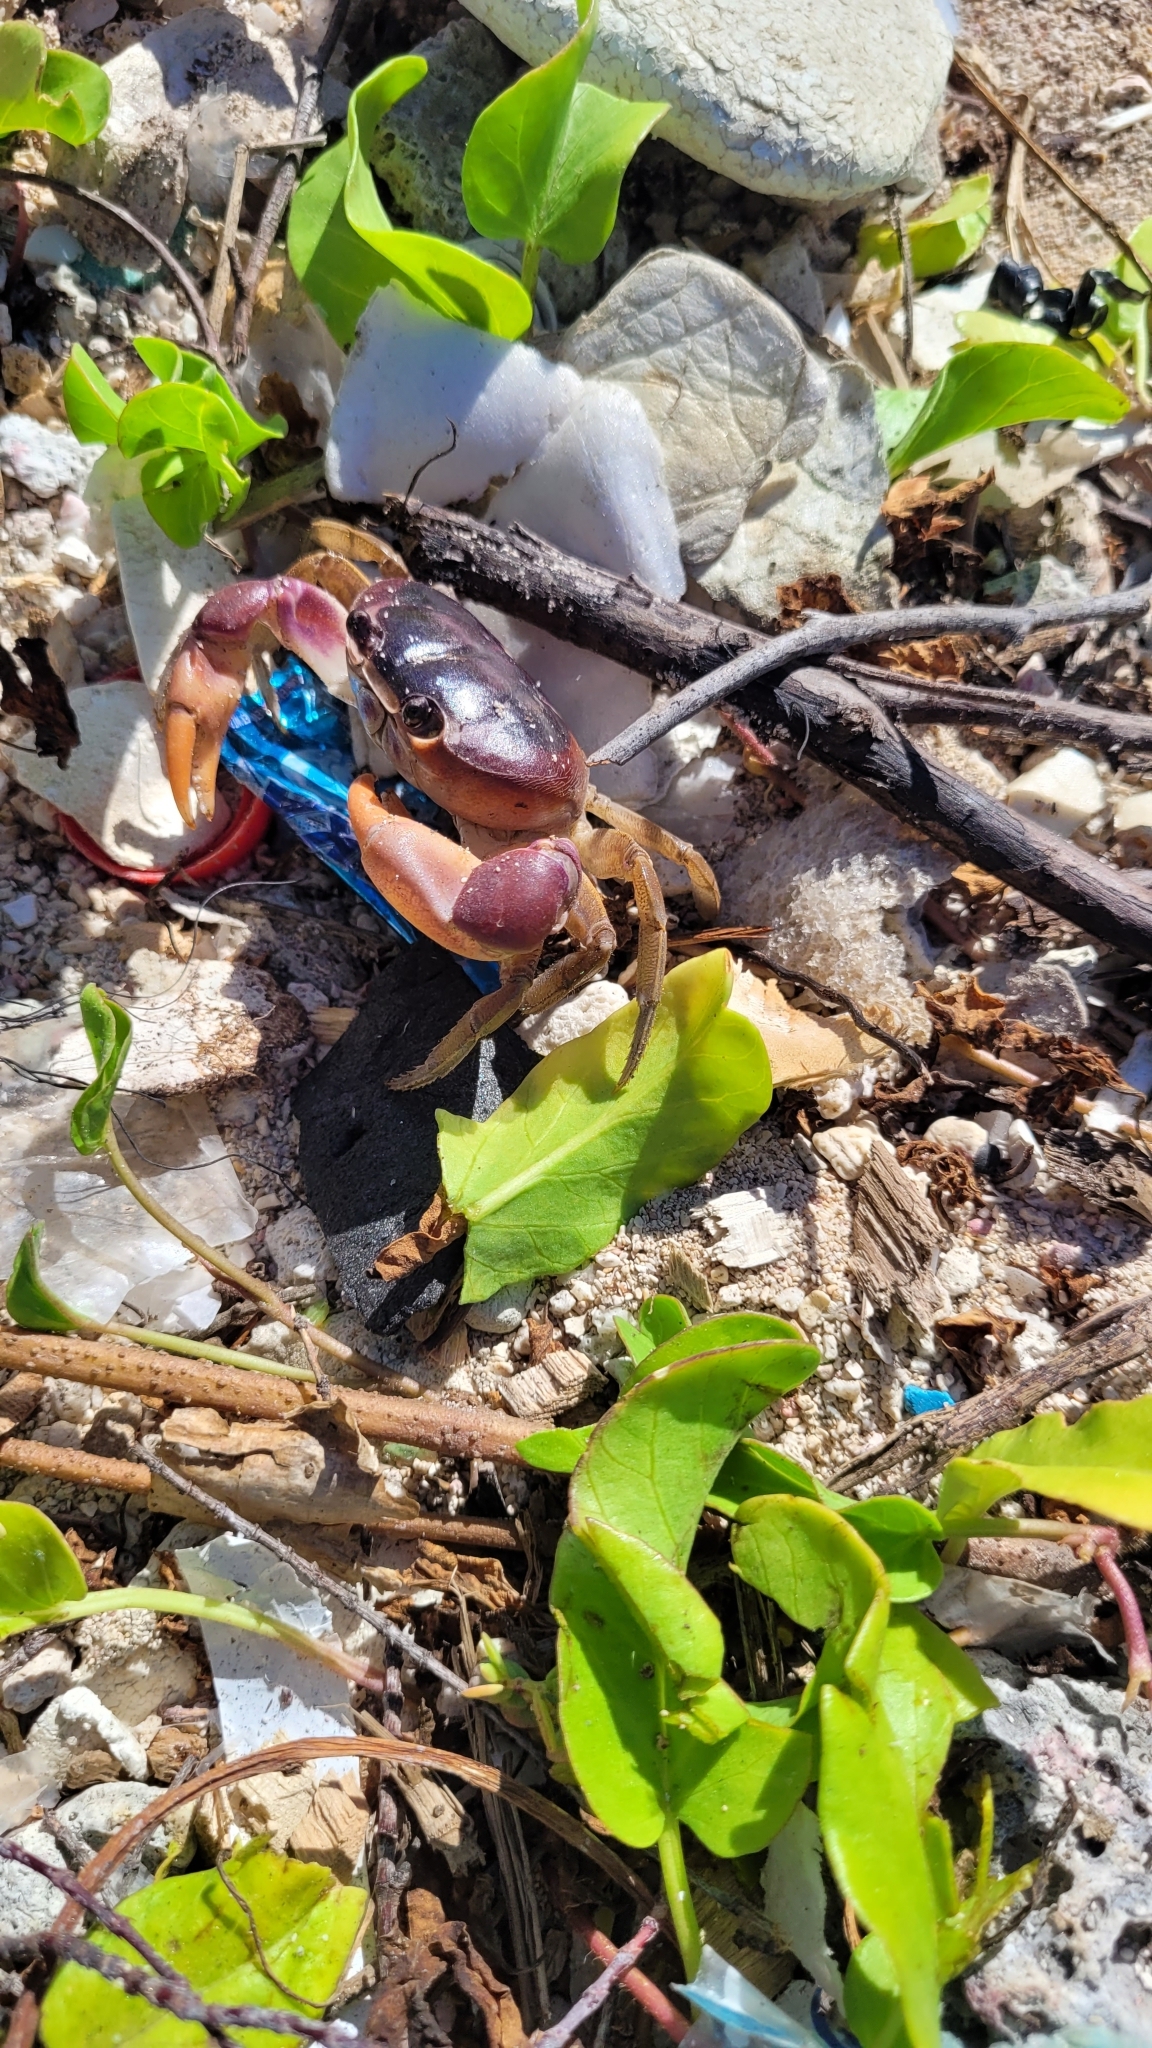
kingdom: Animalia
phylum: Arthropoda
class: Malacostraca
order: Decapoda
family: Gecarcinidae
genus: Gecarcinus
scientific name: Gecarcinus lateralis
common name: Bermuda land crab
